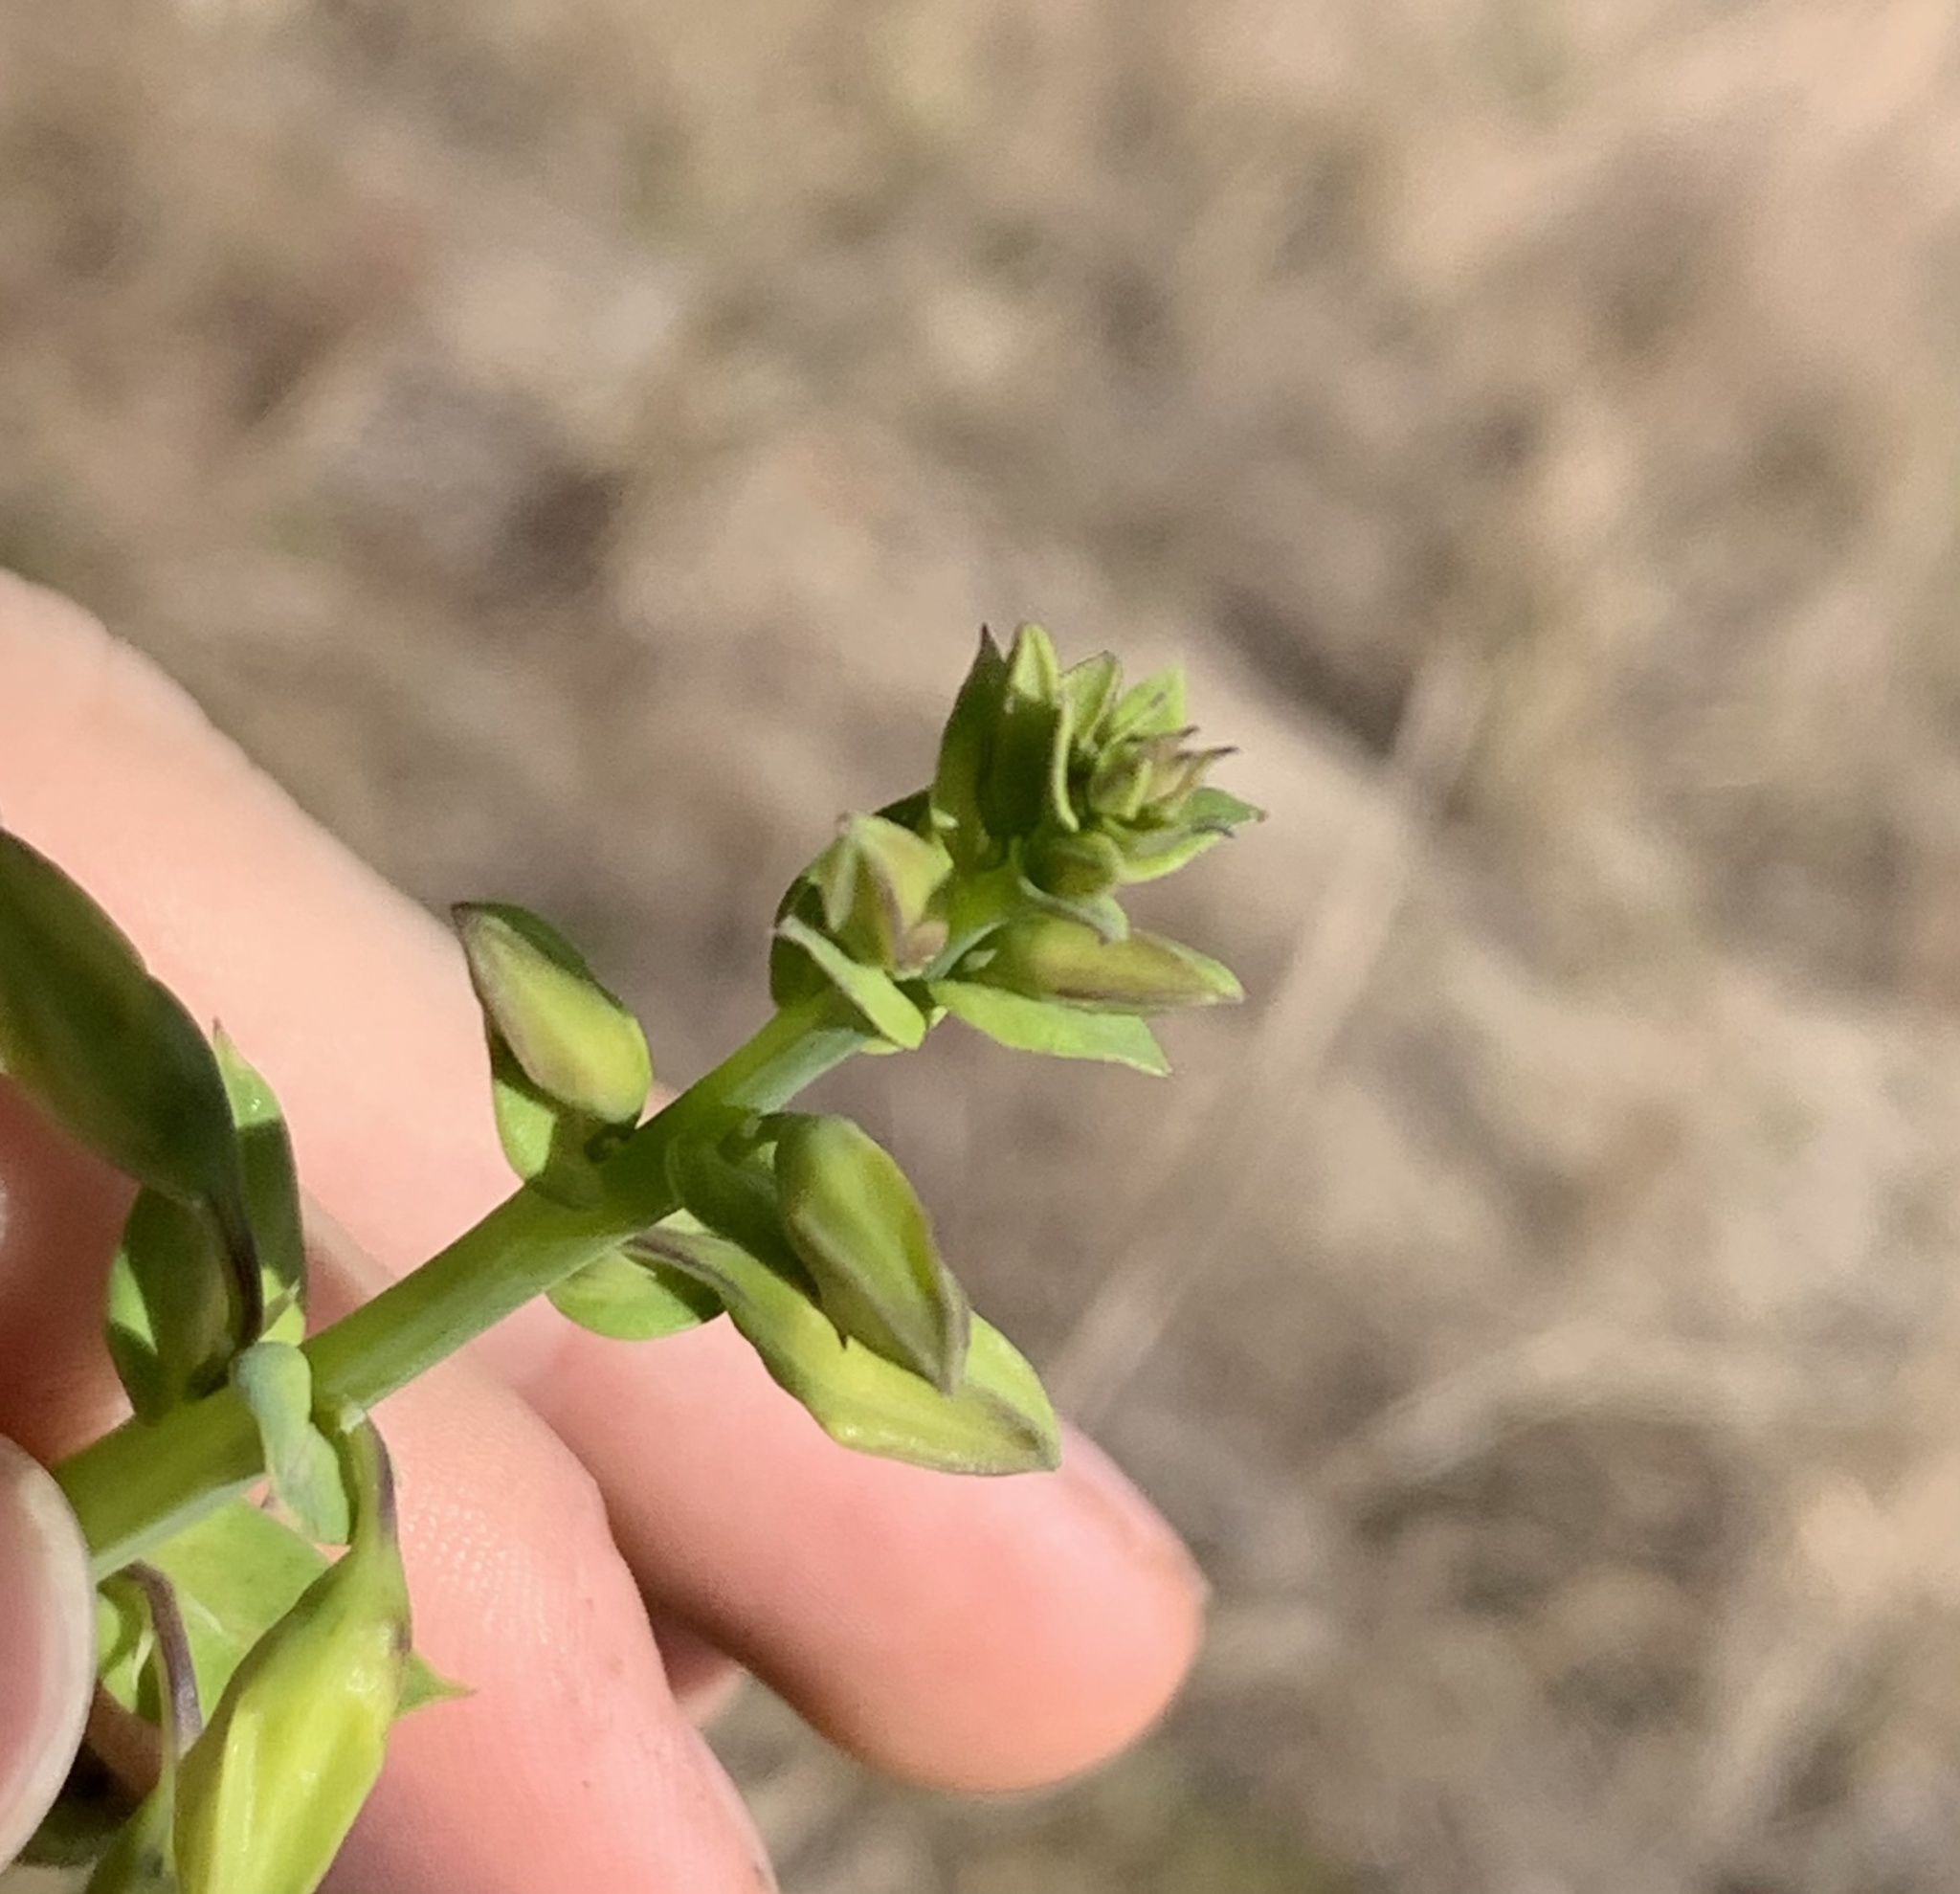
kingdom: Plantae
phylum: Tracheophyta
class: Magnoliopsida
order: Fabales
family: Fabaceae
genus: Crotalaria
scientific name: Crotalaria spectabilis
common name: Showy rattlebox
